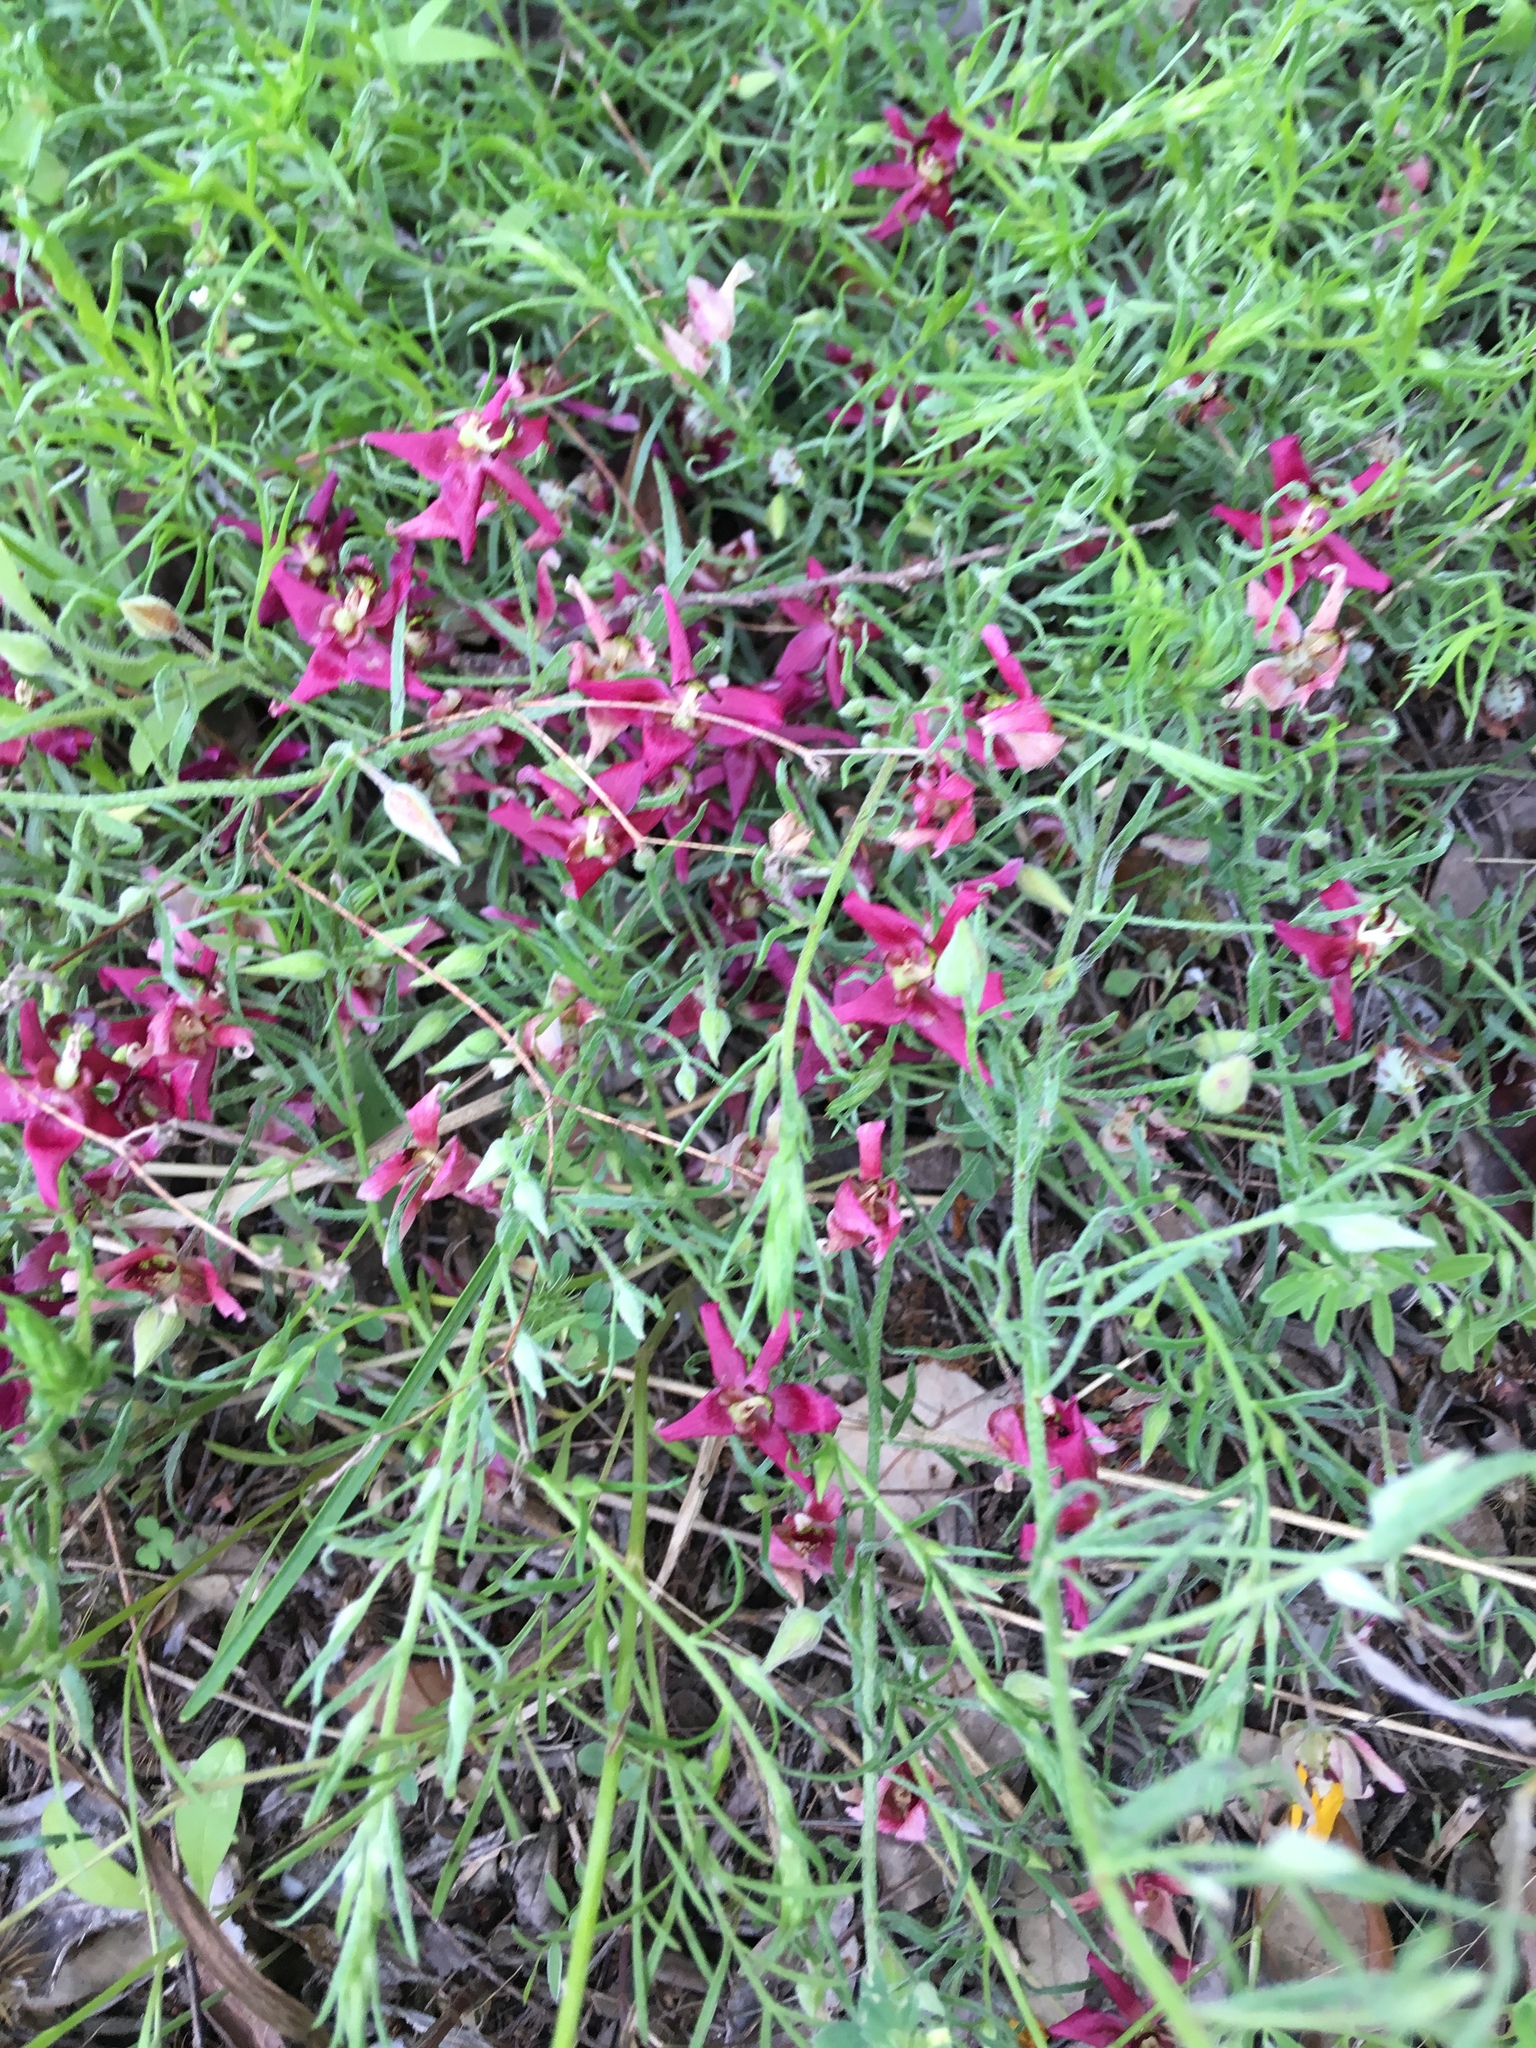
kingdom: Plantae
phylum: Tracheophyta
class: Magnoliopsida
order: Zygophyllales
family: Krameriaceae
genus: Krameria
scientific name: Krameria lanceolata
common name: Ratany
